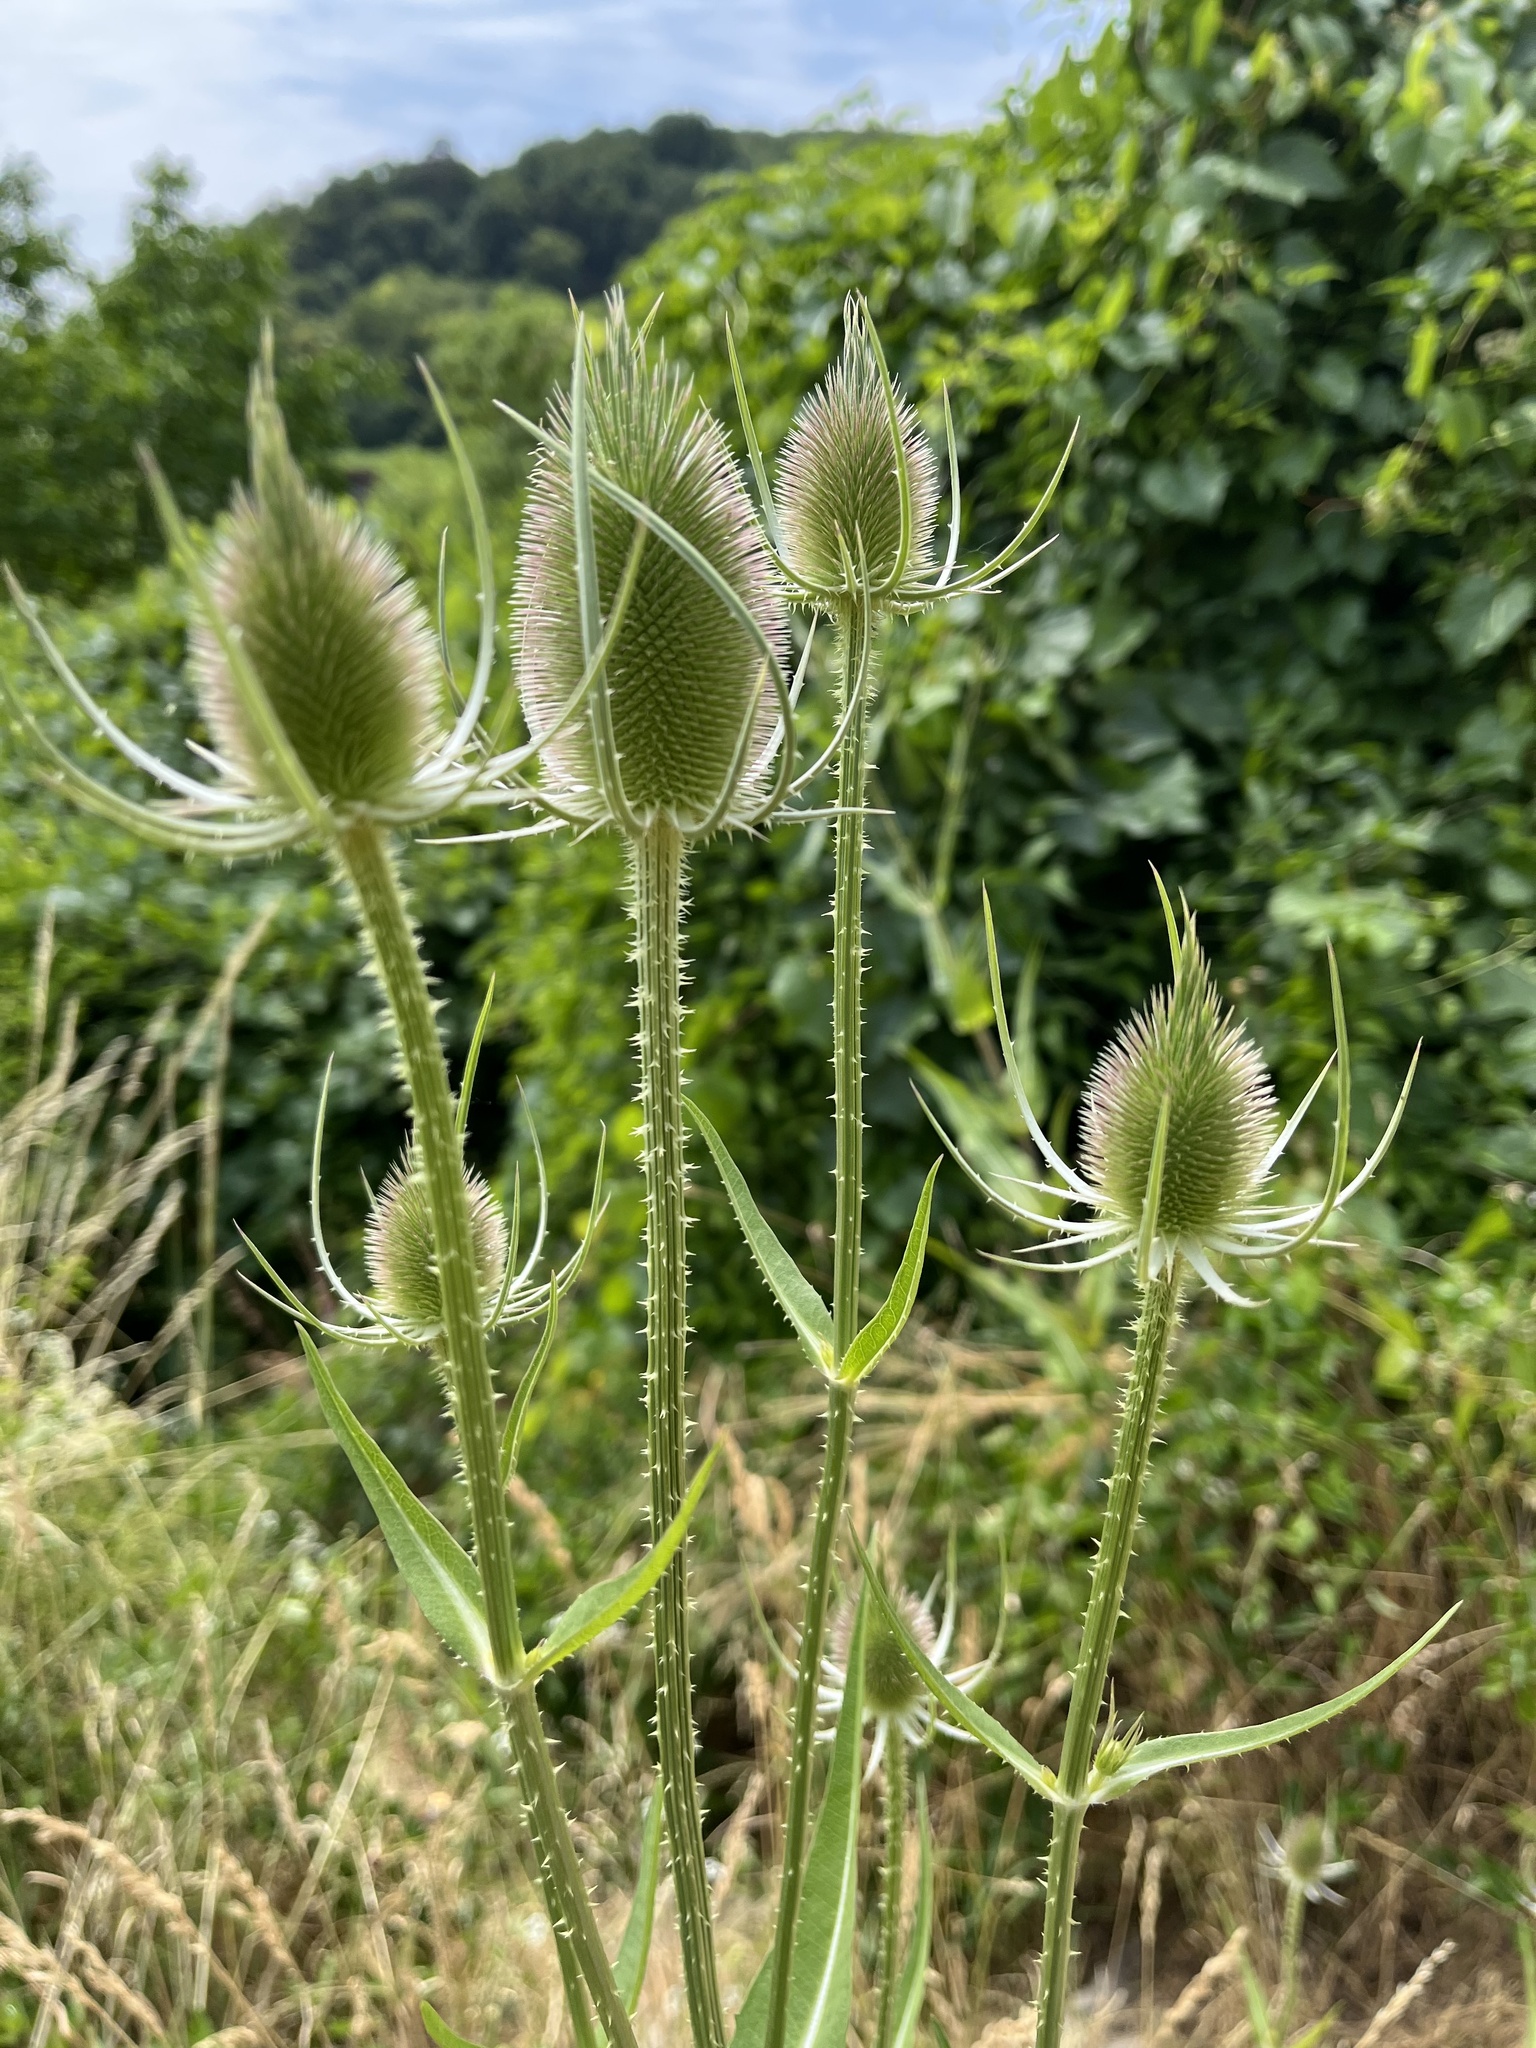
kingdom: Plantae
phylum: Tracheophyta
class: Magnoliopsida
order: Dipsacales
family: Caprifoliaceae
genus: Dipsacus
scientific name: Dipsacus fullonum
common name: Teasel
